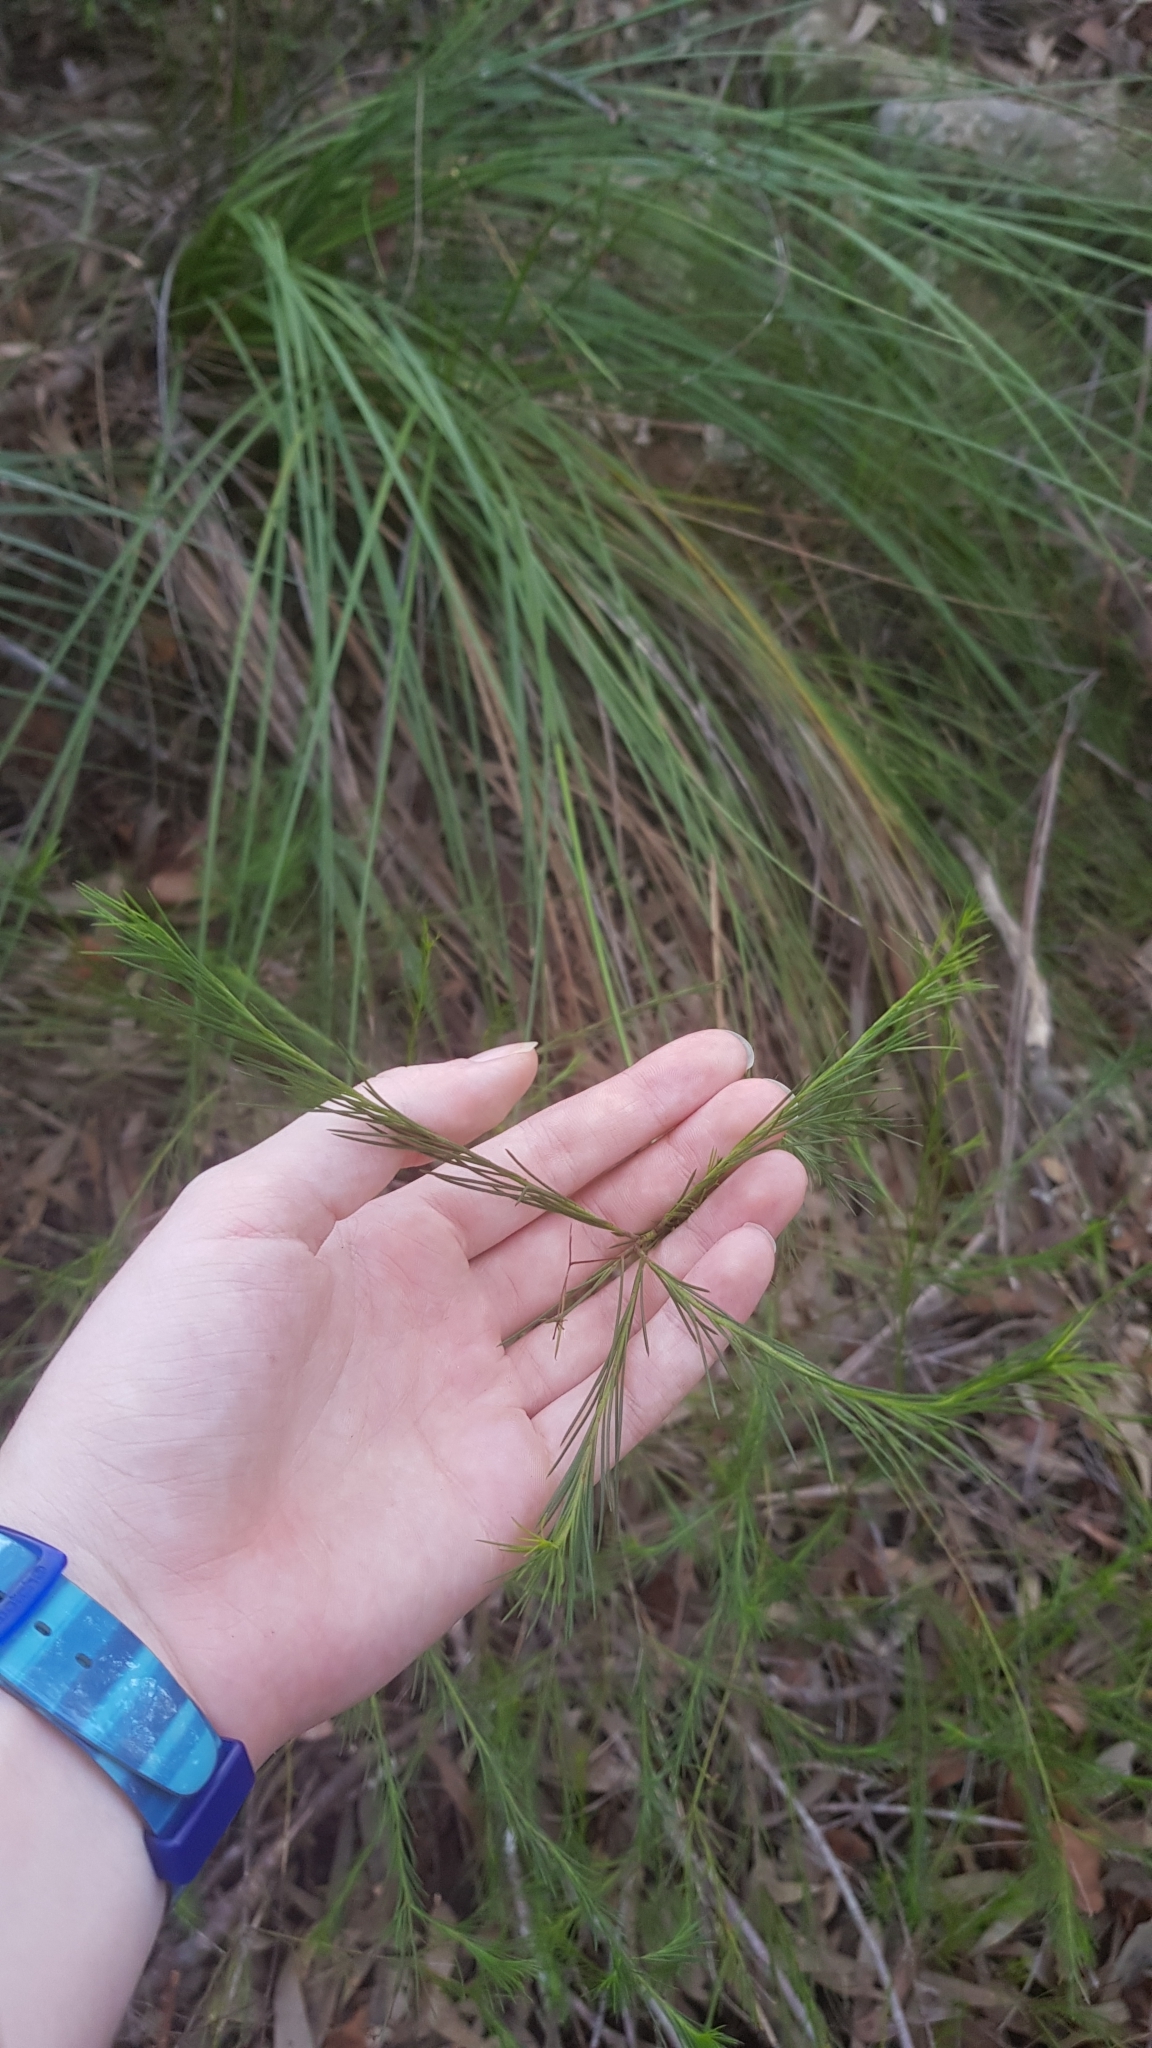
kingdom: Plantae
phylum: Tracheophyta
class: Magnoliopsida
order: Apiales
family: Apiaceae
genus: Platysace
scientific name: Platysace linearifolia
